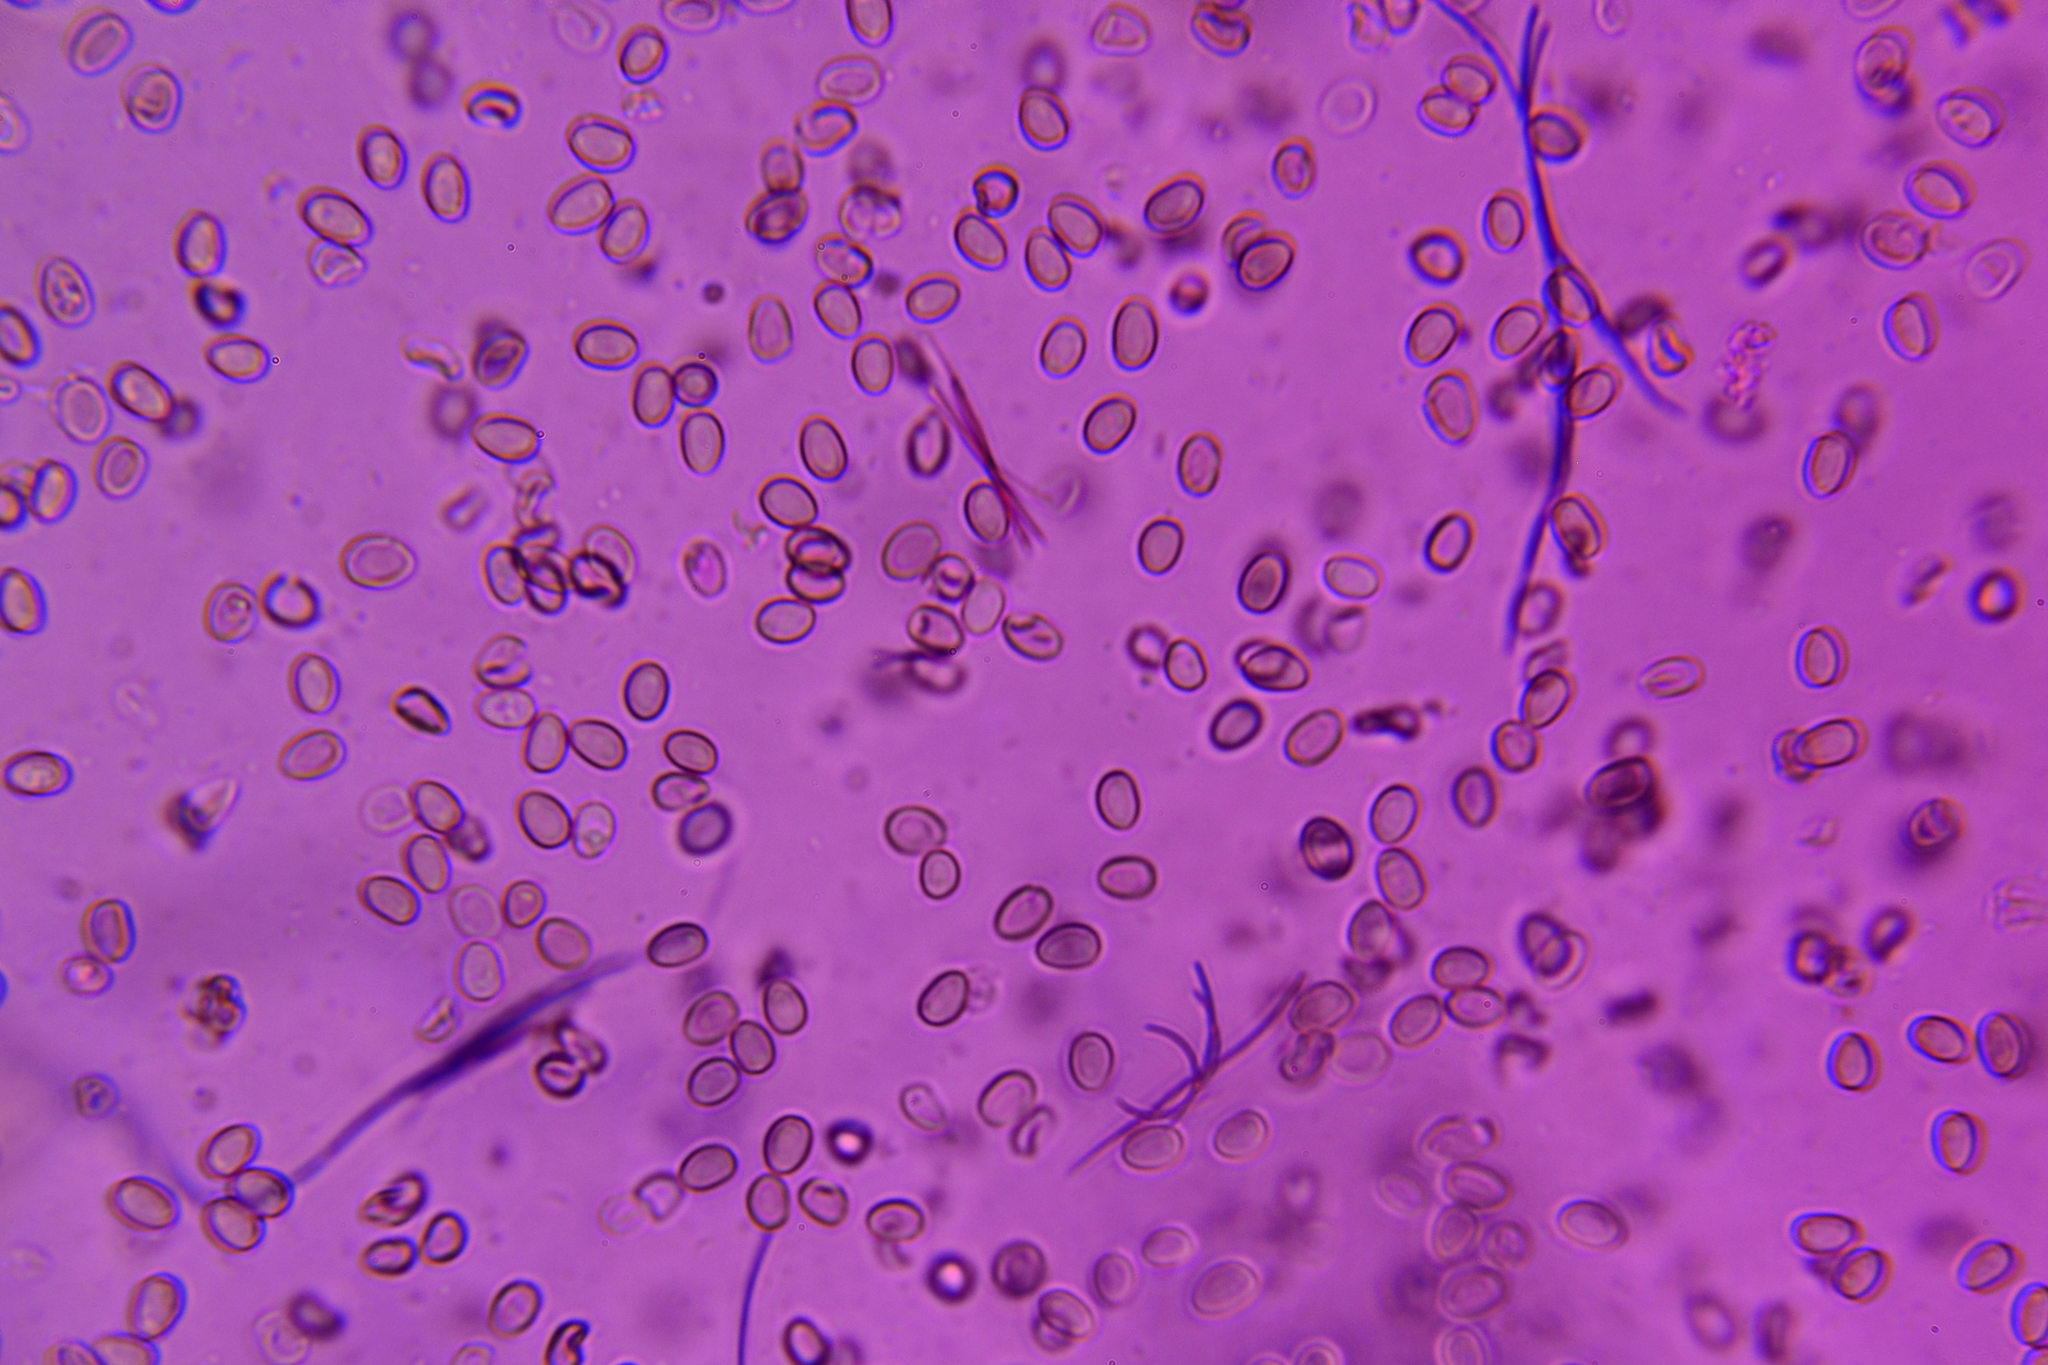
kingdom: Fungi
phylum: Basidiomycota
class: Agaricomycetes
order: Agaricales
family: Psathyrellaceae
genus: Psathyrella
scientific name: Psathyrella subhyalinispora
